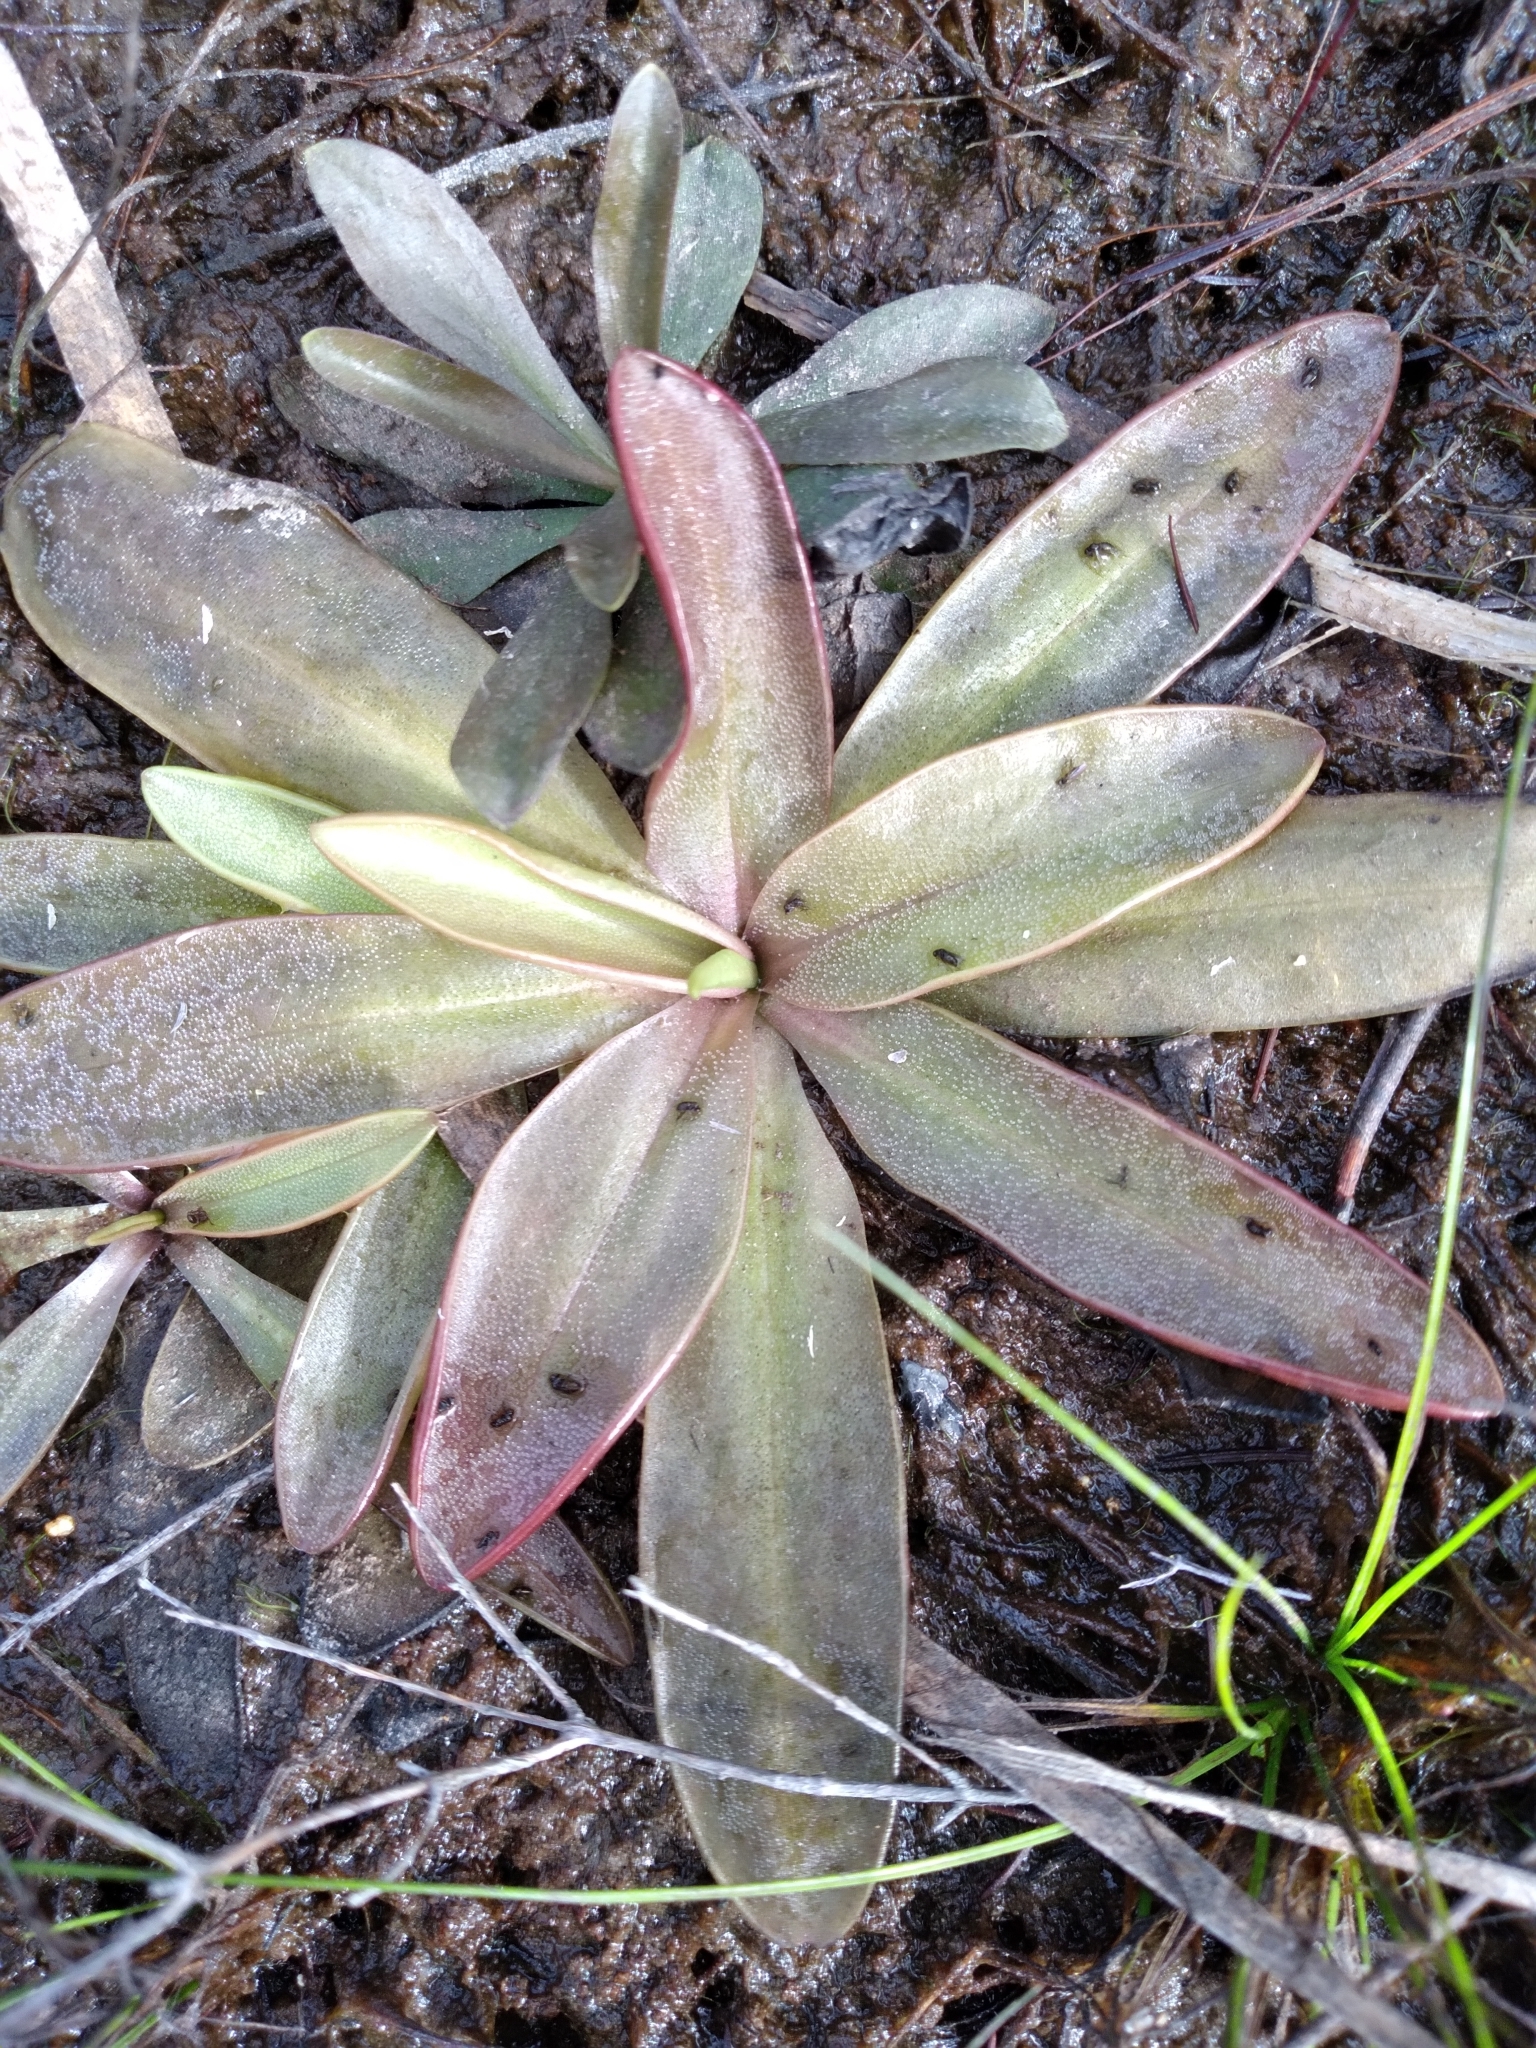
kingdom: Plantae
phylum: Tracheophyta
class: Magnoliopsida
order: Lamiales
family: Lentibulariaceae
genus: Pinguicula
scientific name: Pinguicula planifolia
